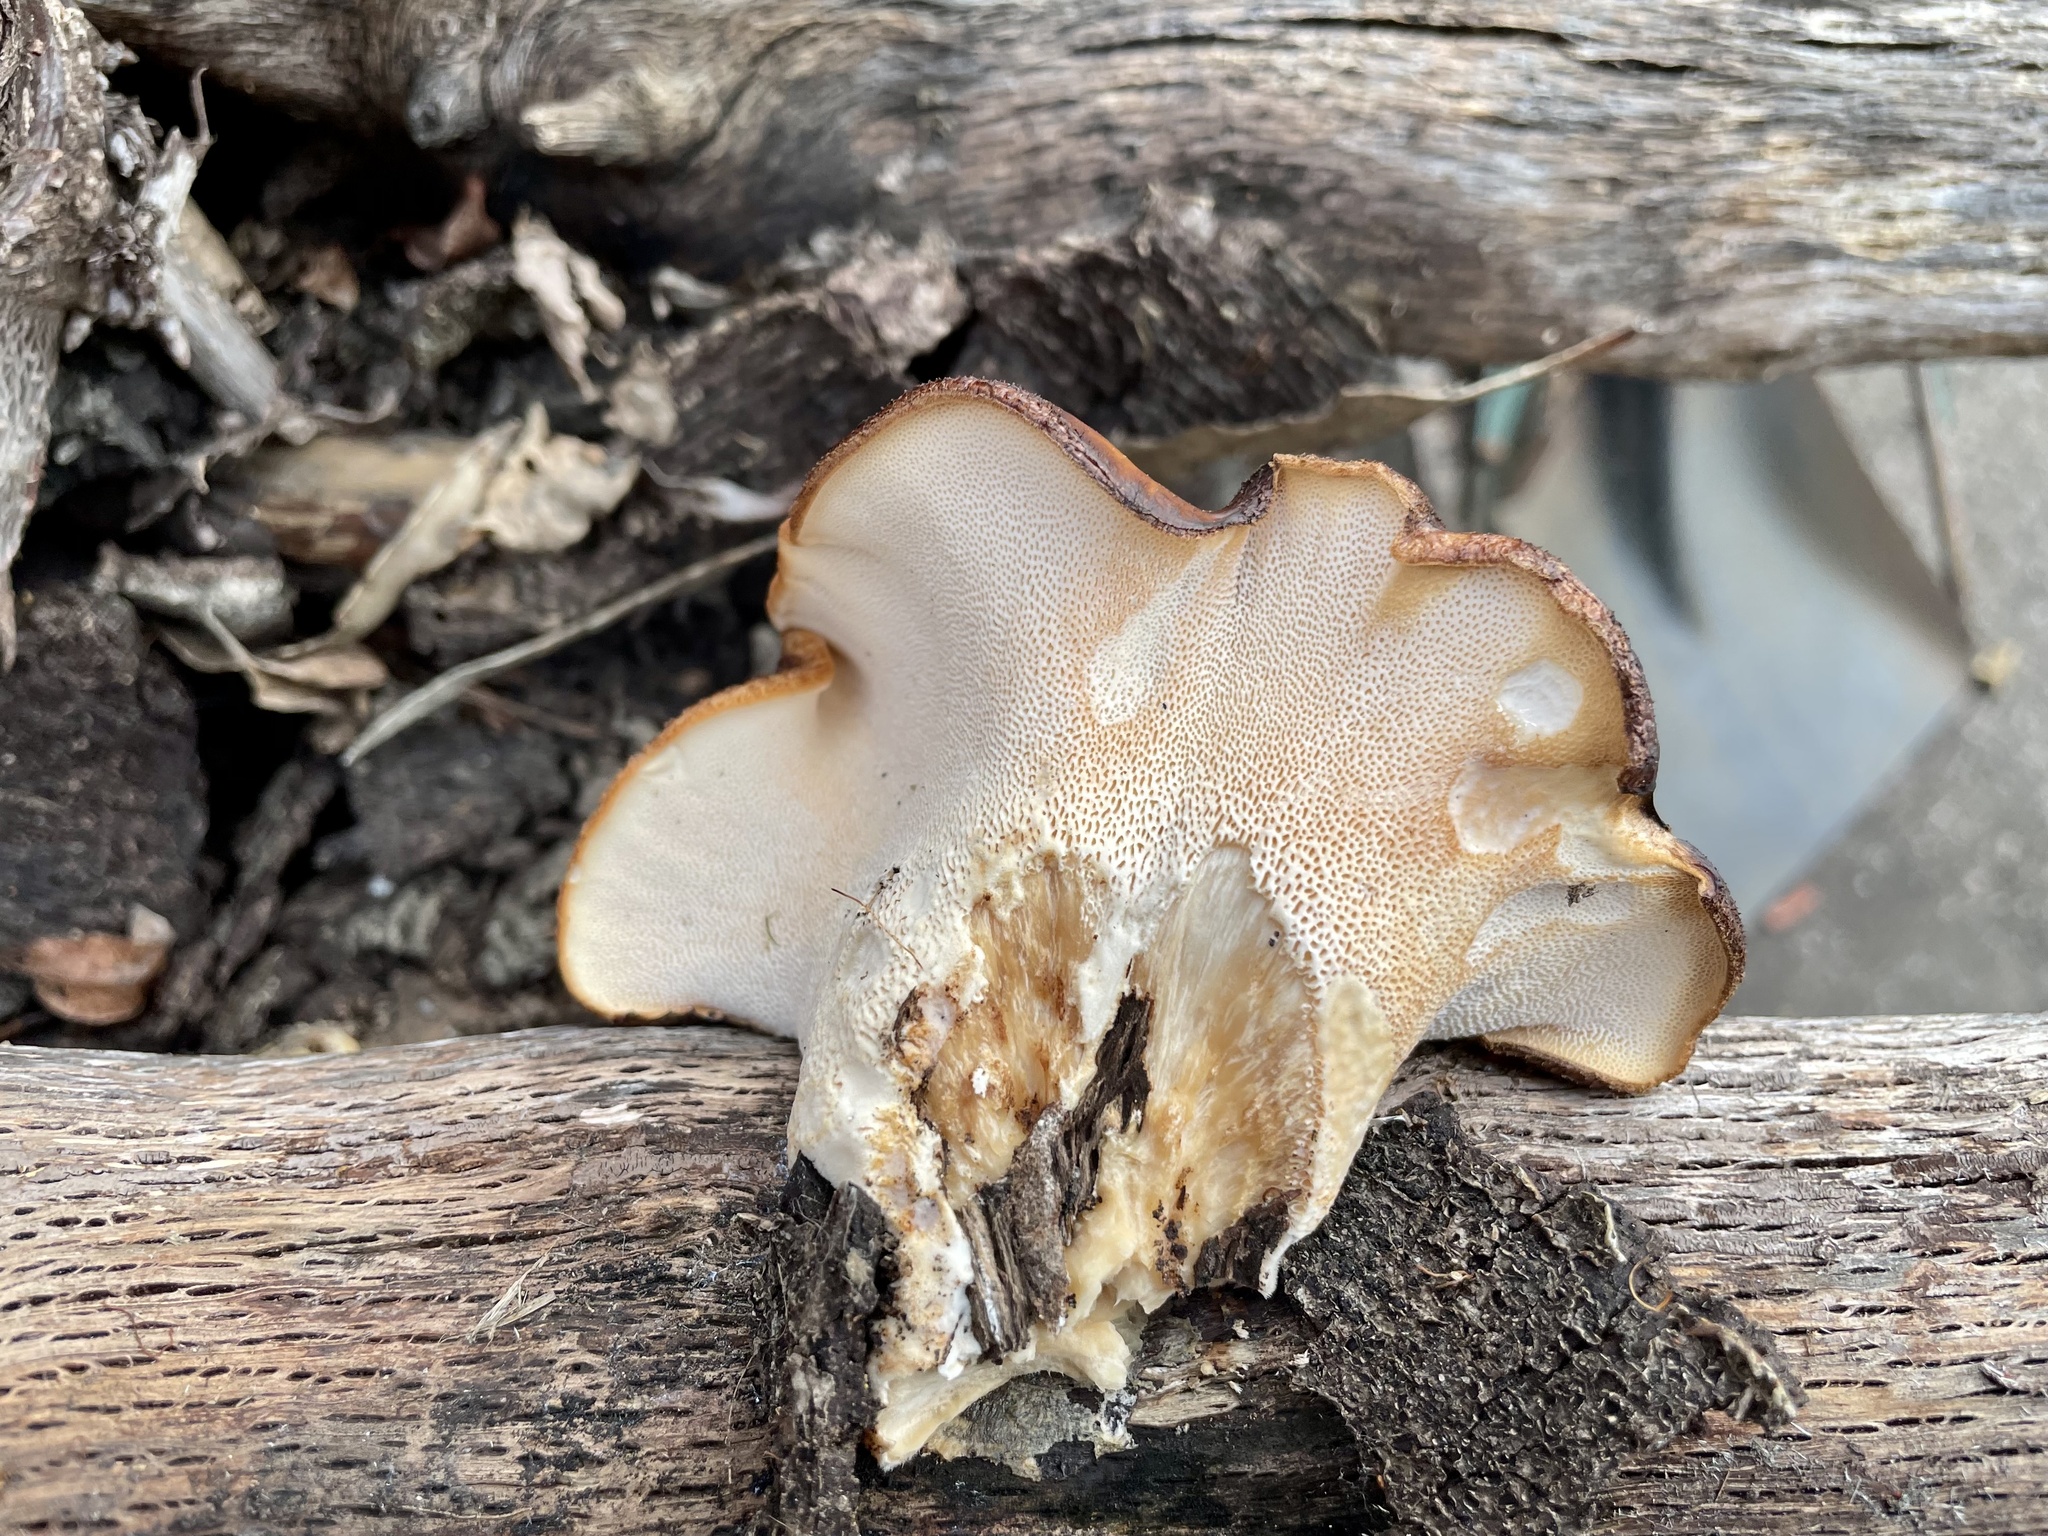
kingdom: Fungi
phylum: Basidiomycota
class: Agaricomycetes
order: Polyporales
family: Phanerochaetaceae
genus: Bjerkandera
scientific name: Bjerkandera fumosa
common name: Big smoky bracket
